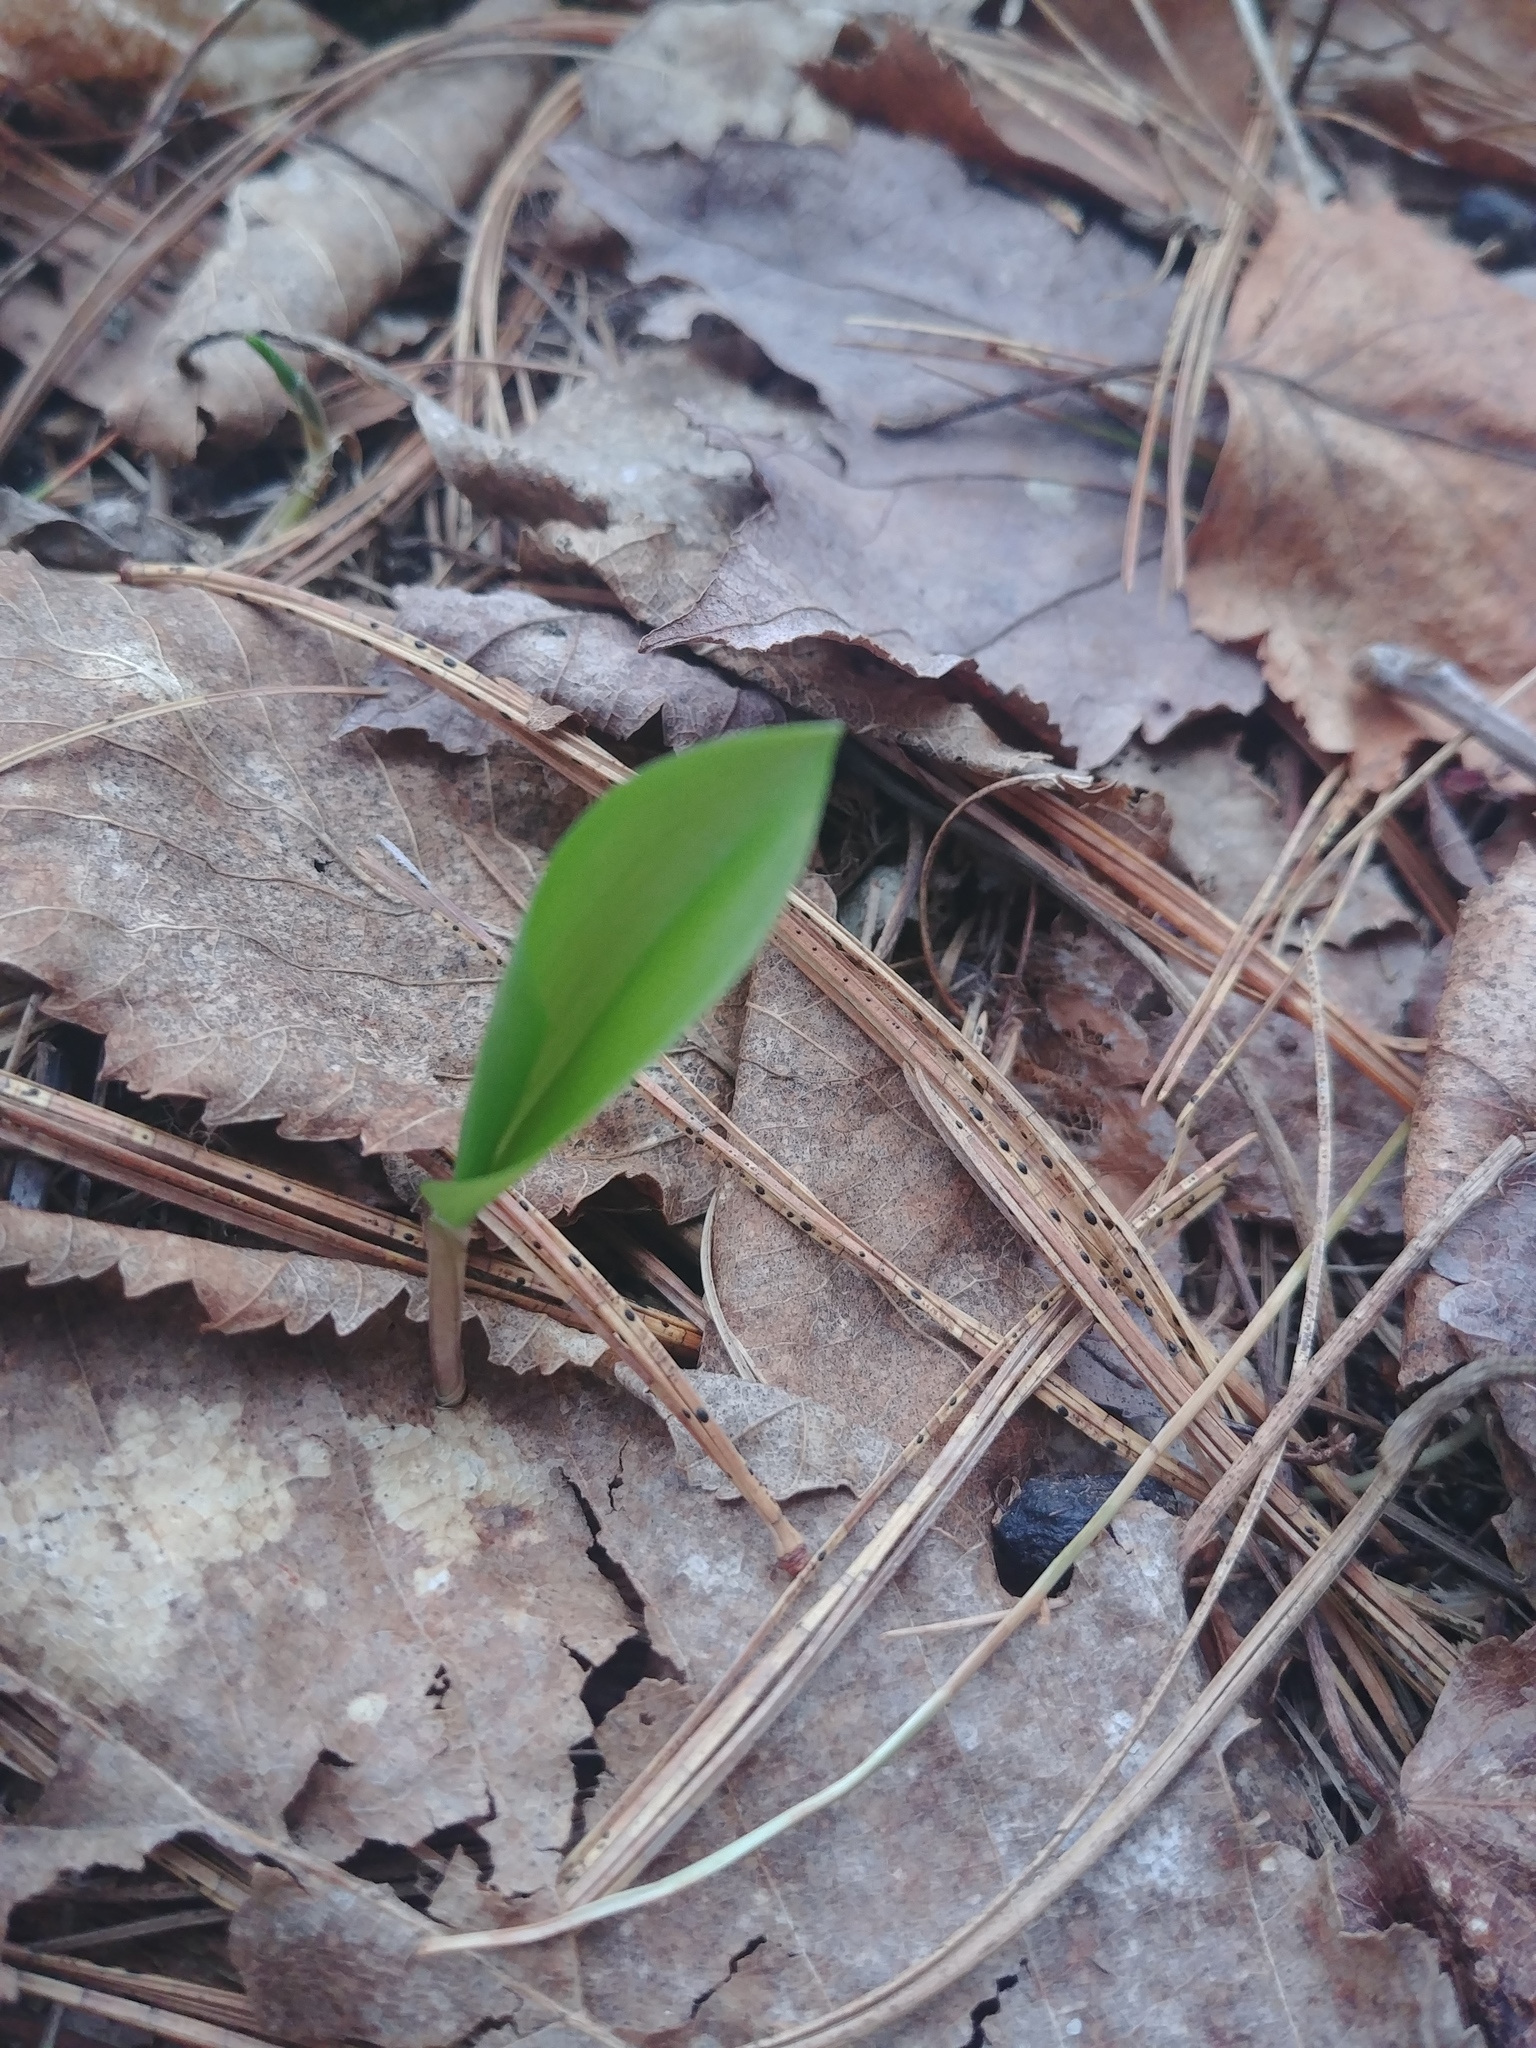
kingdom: Plantae
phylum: Tracheophyta
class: Liliopsida
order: Asparagales
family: Asparagaceae
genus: Maianthemum
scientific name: Maianthemum canadense
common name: False lily-of-the-valley
